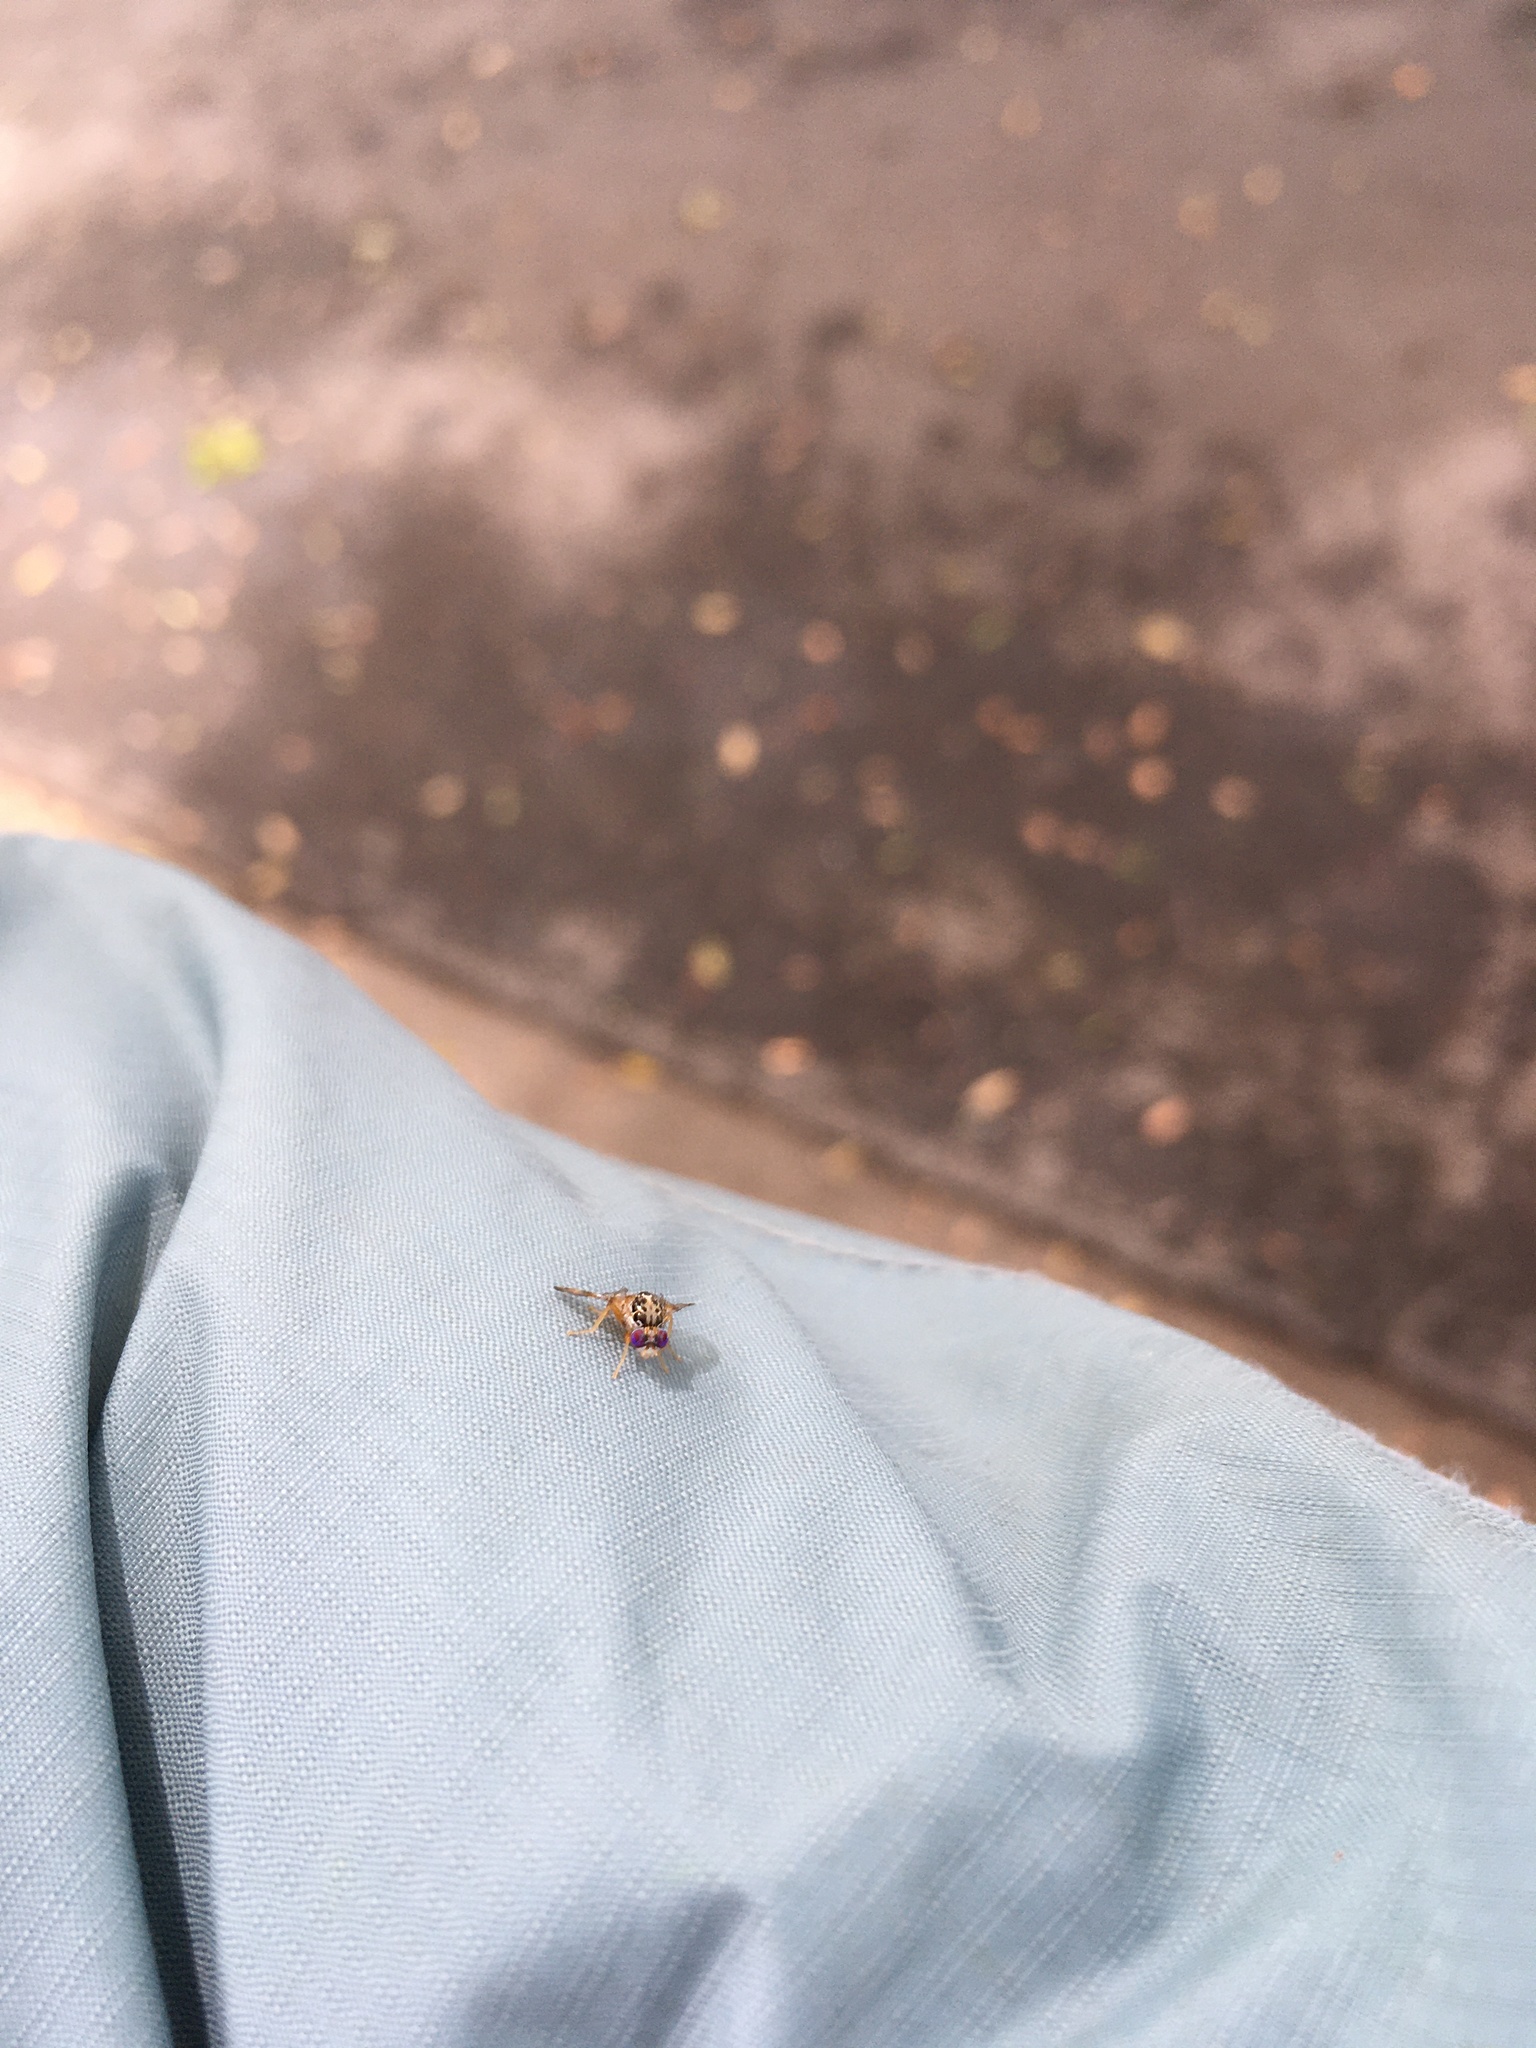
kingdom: Animalia
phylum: Arthropoda
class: Insecta
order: Diptera
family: Tephritidae
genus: Ceratitis
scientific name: Ceratitis capitata
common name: Mediterranean fruit fly
